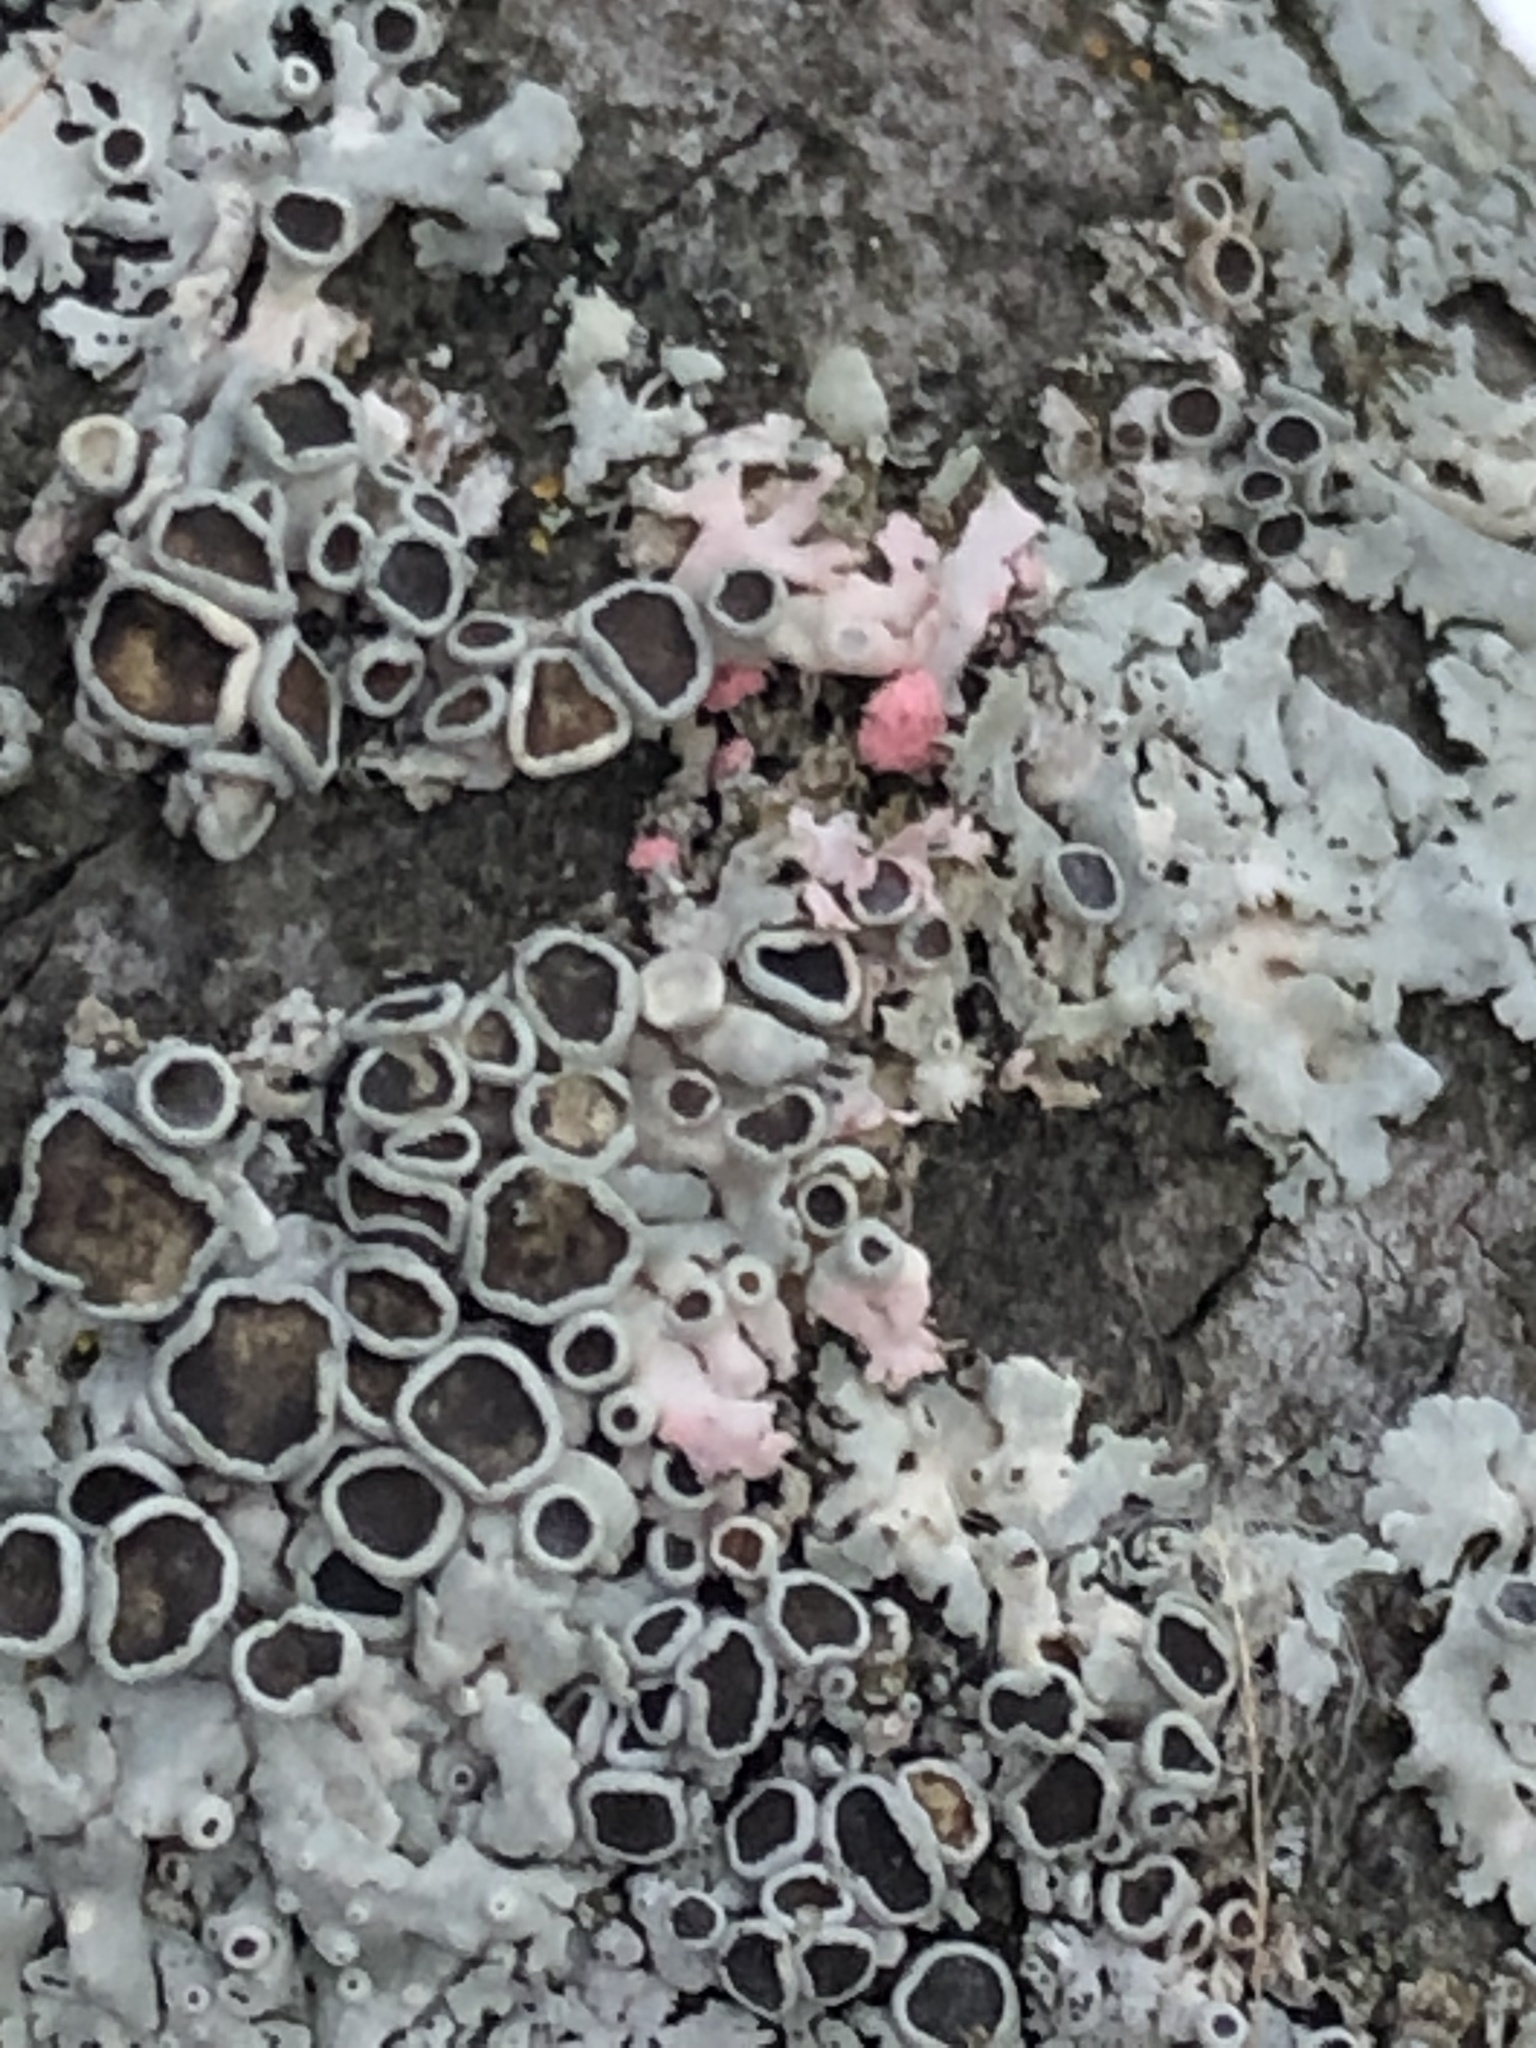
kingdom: Fungi
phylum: Ascomycota
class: Sordariomycetes
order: Hypocreales
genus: Illosporiopsis
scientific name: Illosporiopsis christiansenii
